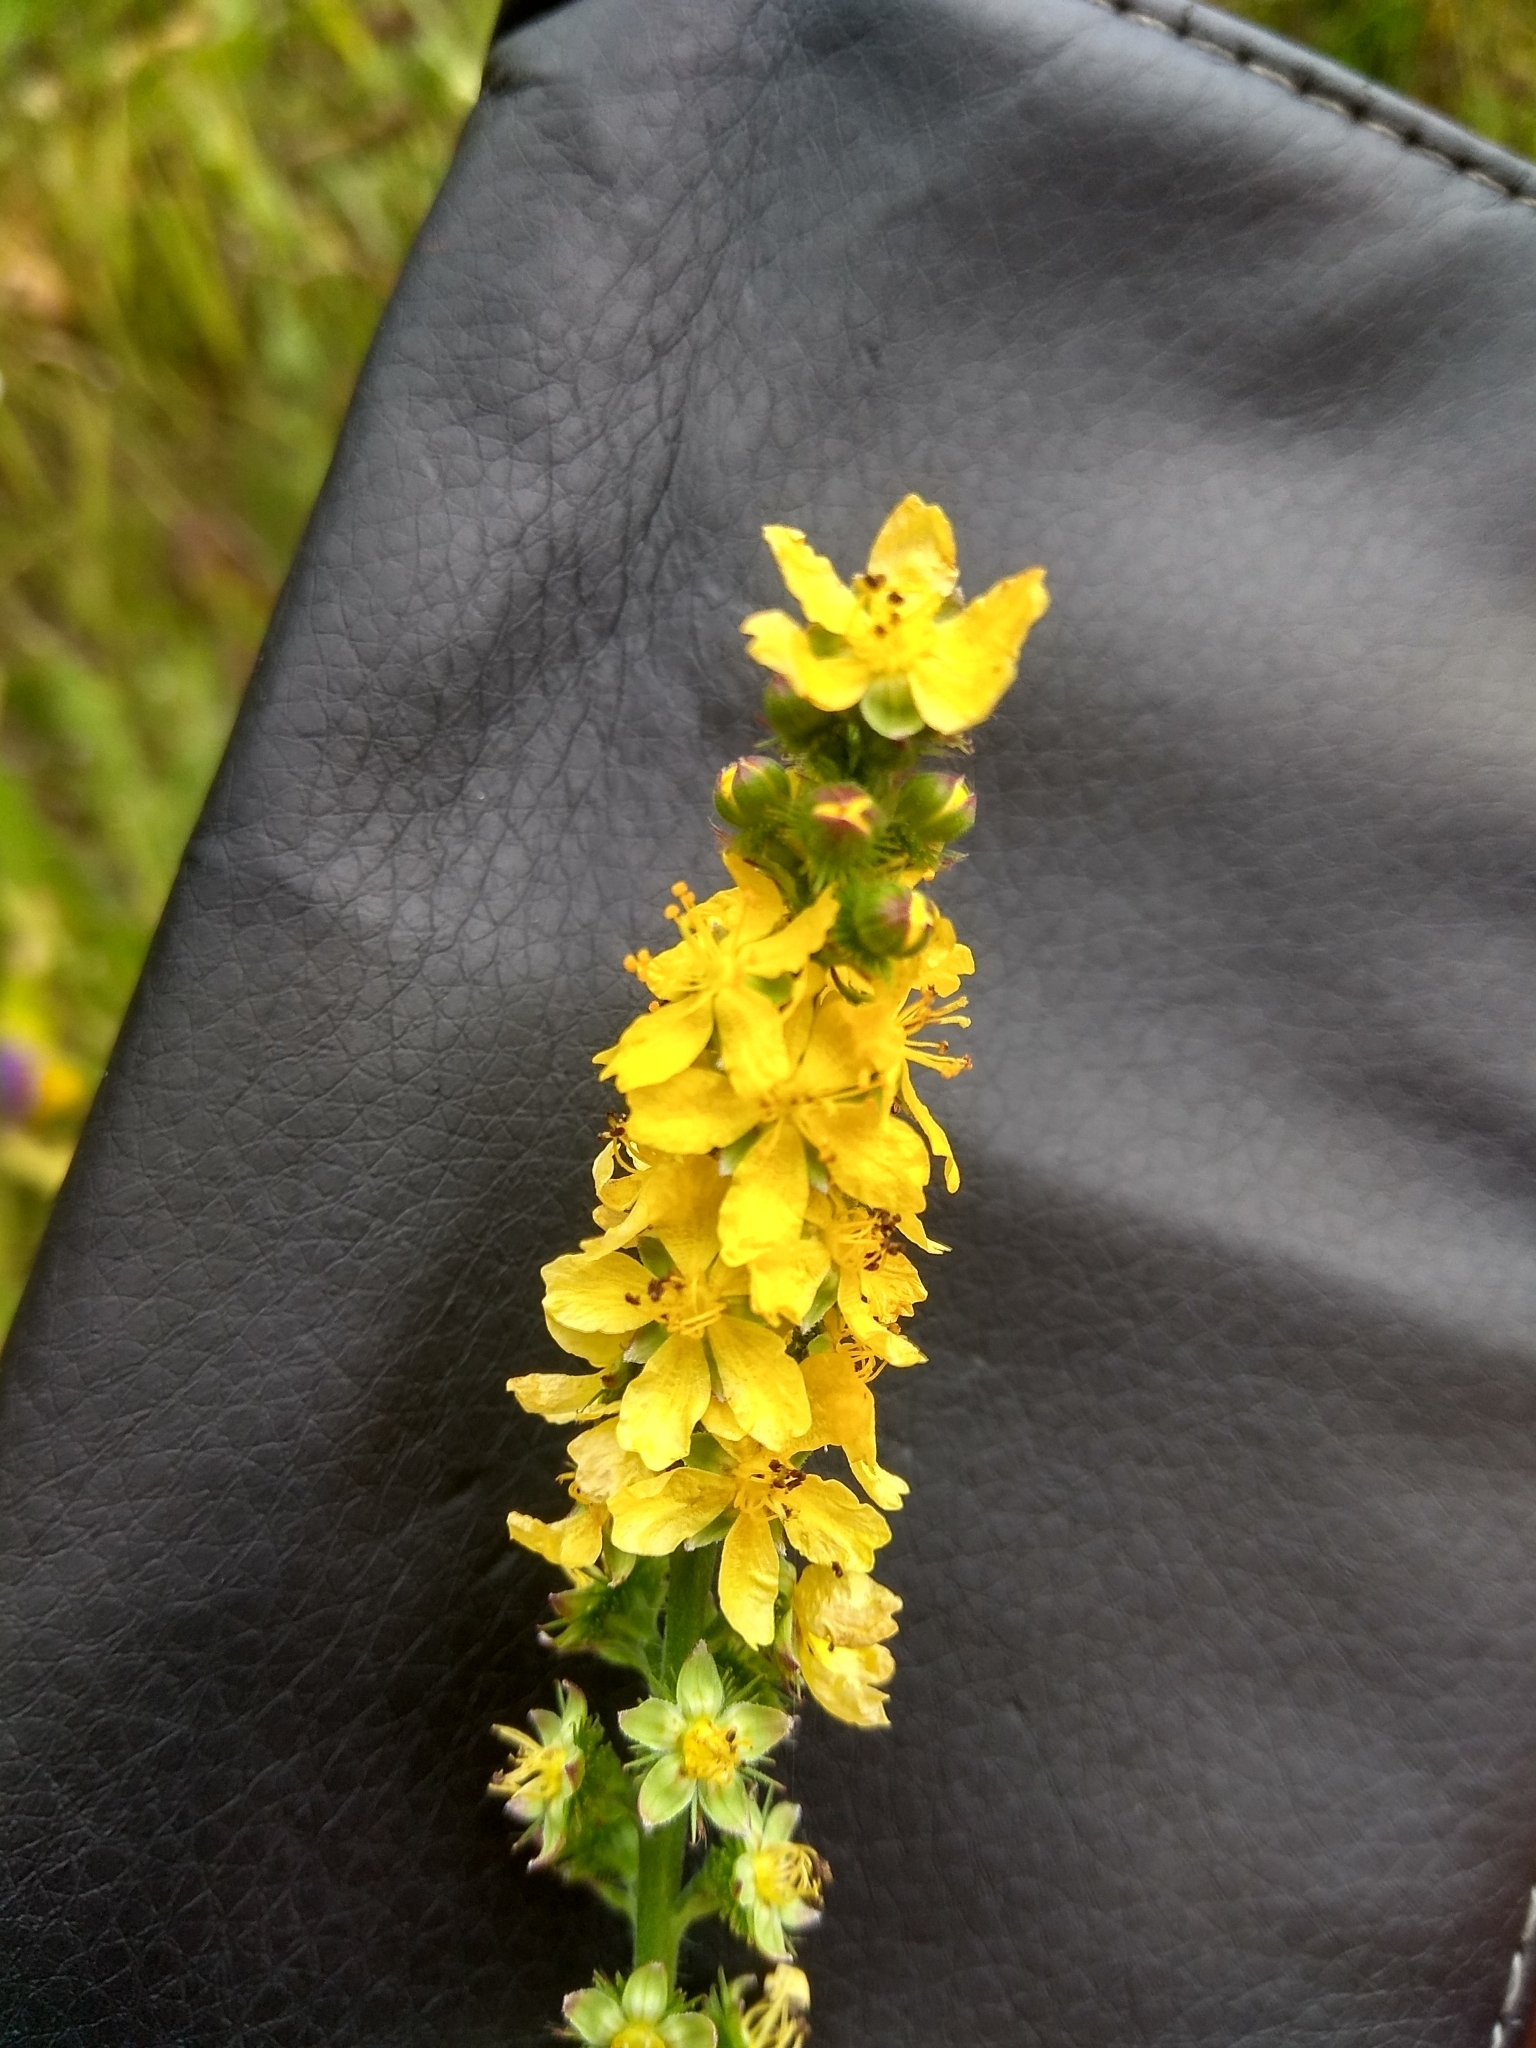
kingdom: Plantae
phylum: Tracheophyta
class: Magnoliopsida
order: Rosales
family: Rosaceae
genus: Agrimonia
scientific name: Agrimonia eupatoria
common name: Agrimony
